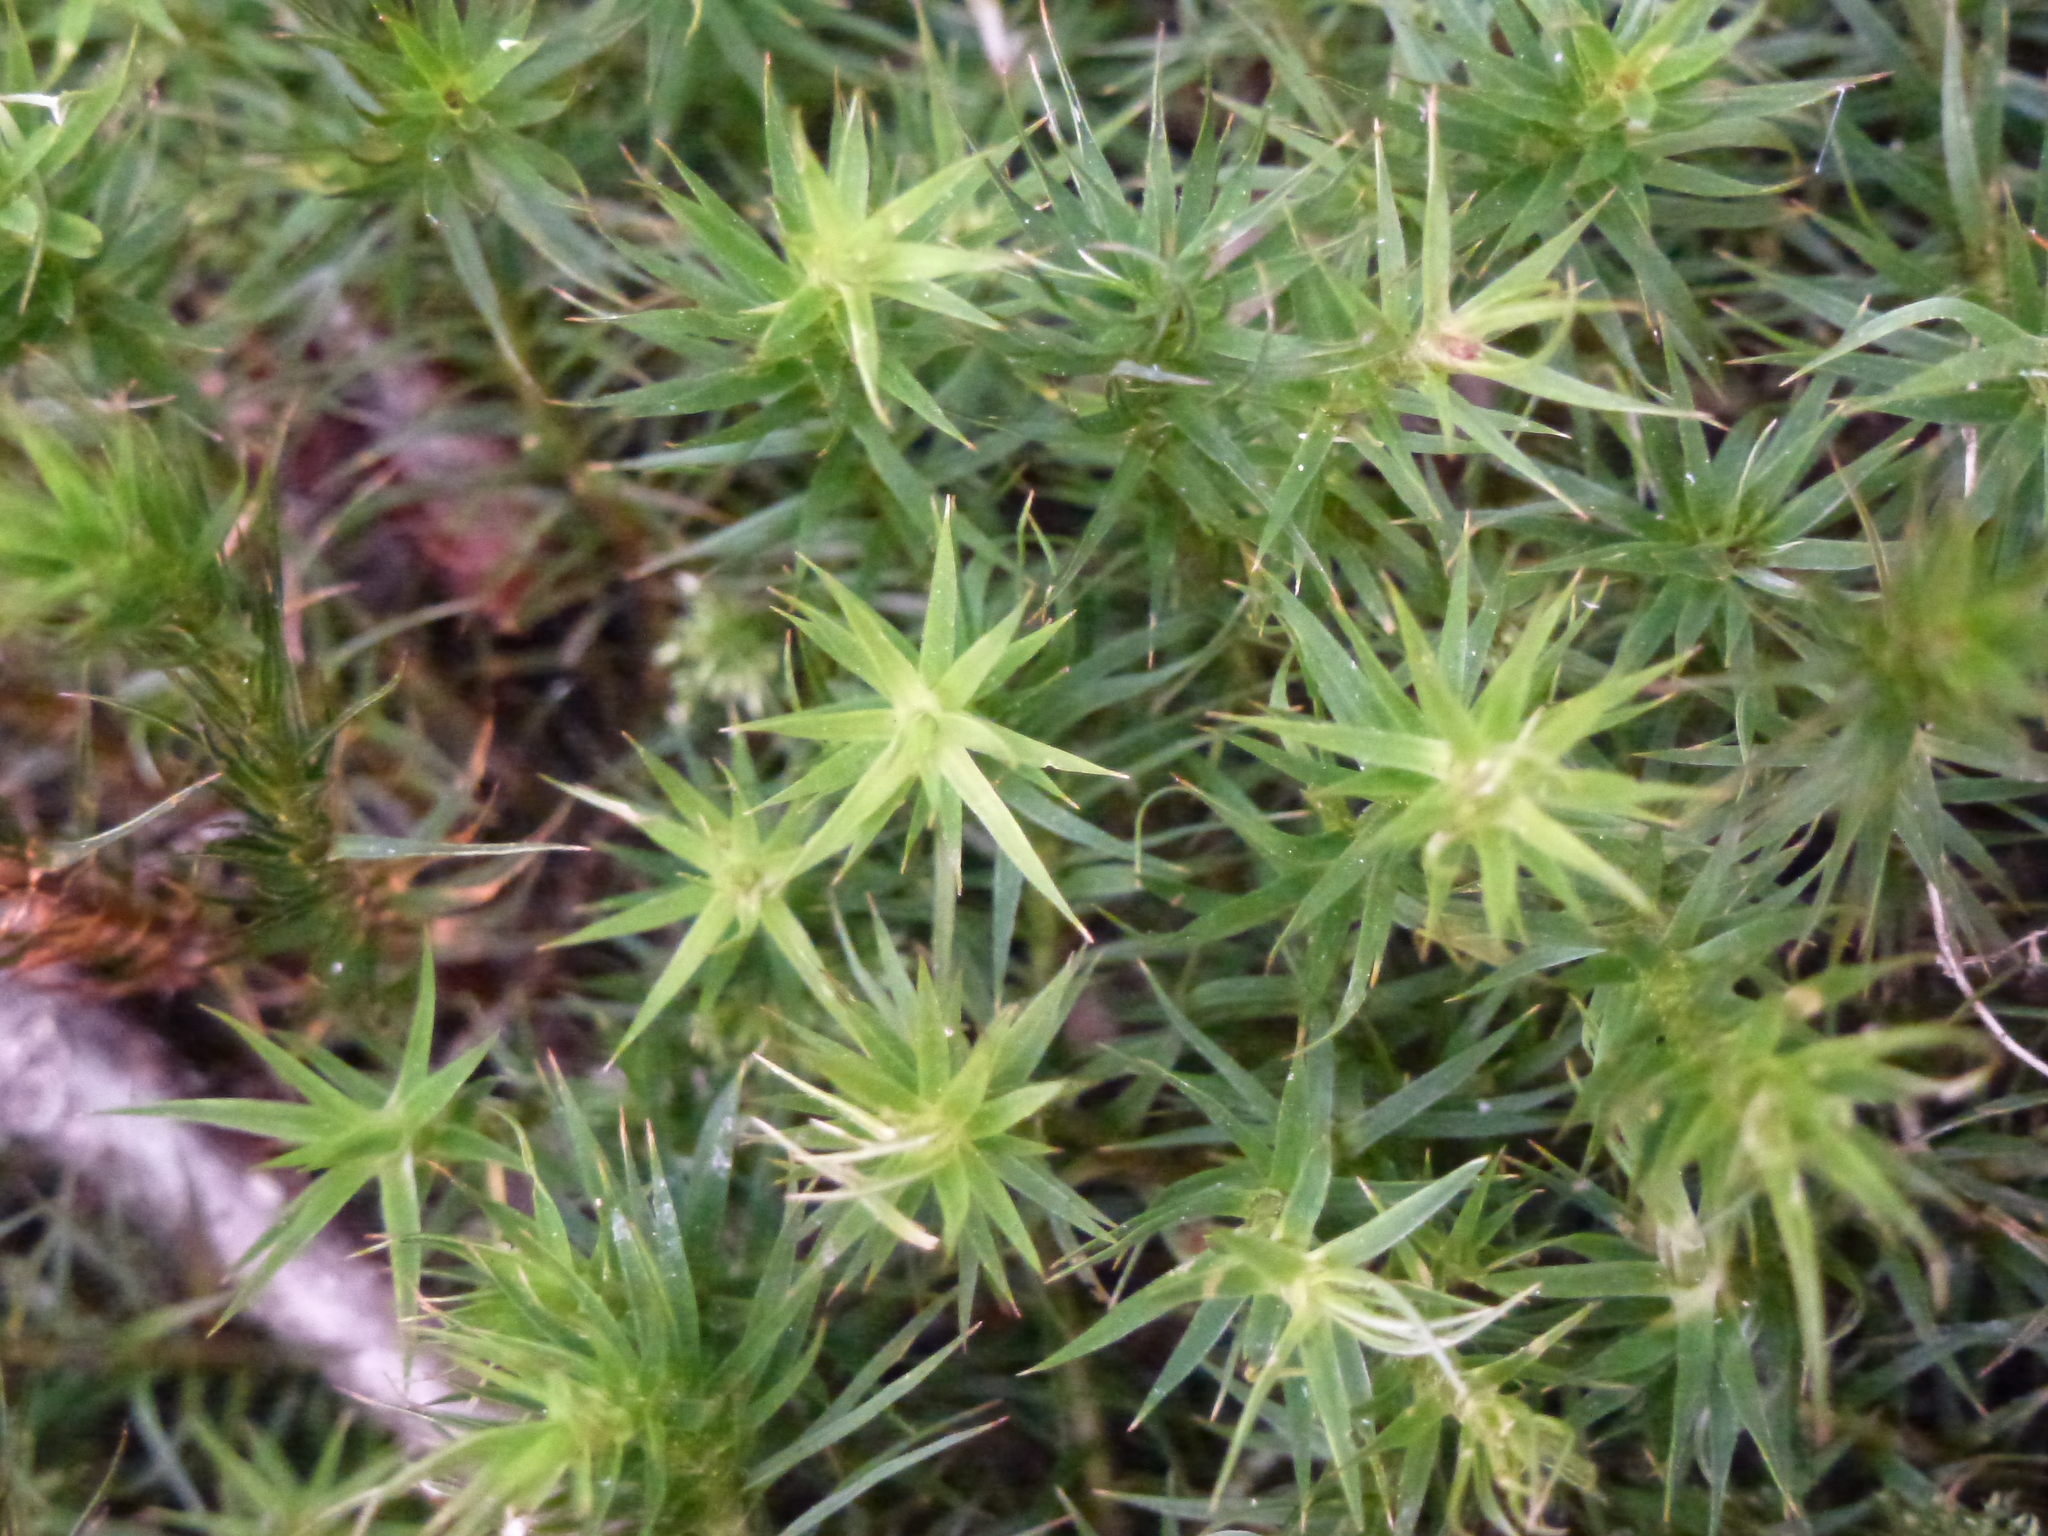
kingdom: Plantae
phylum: Bryophyta
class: Polytrichopsida
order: Polytrichales
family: Polytrichaceae
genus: Polytrichum
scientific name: Polytrichum formosum
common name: Bank haircap moss
